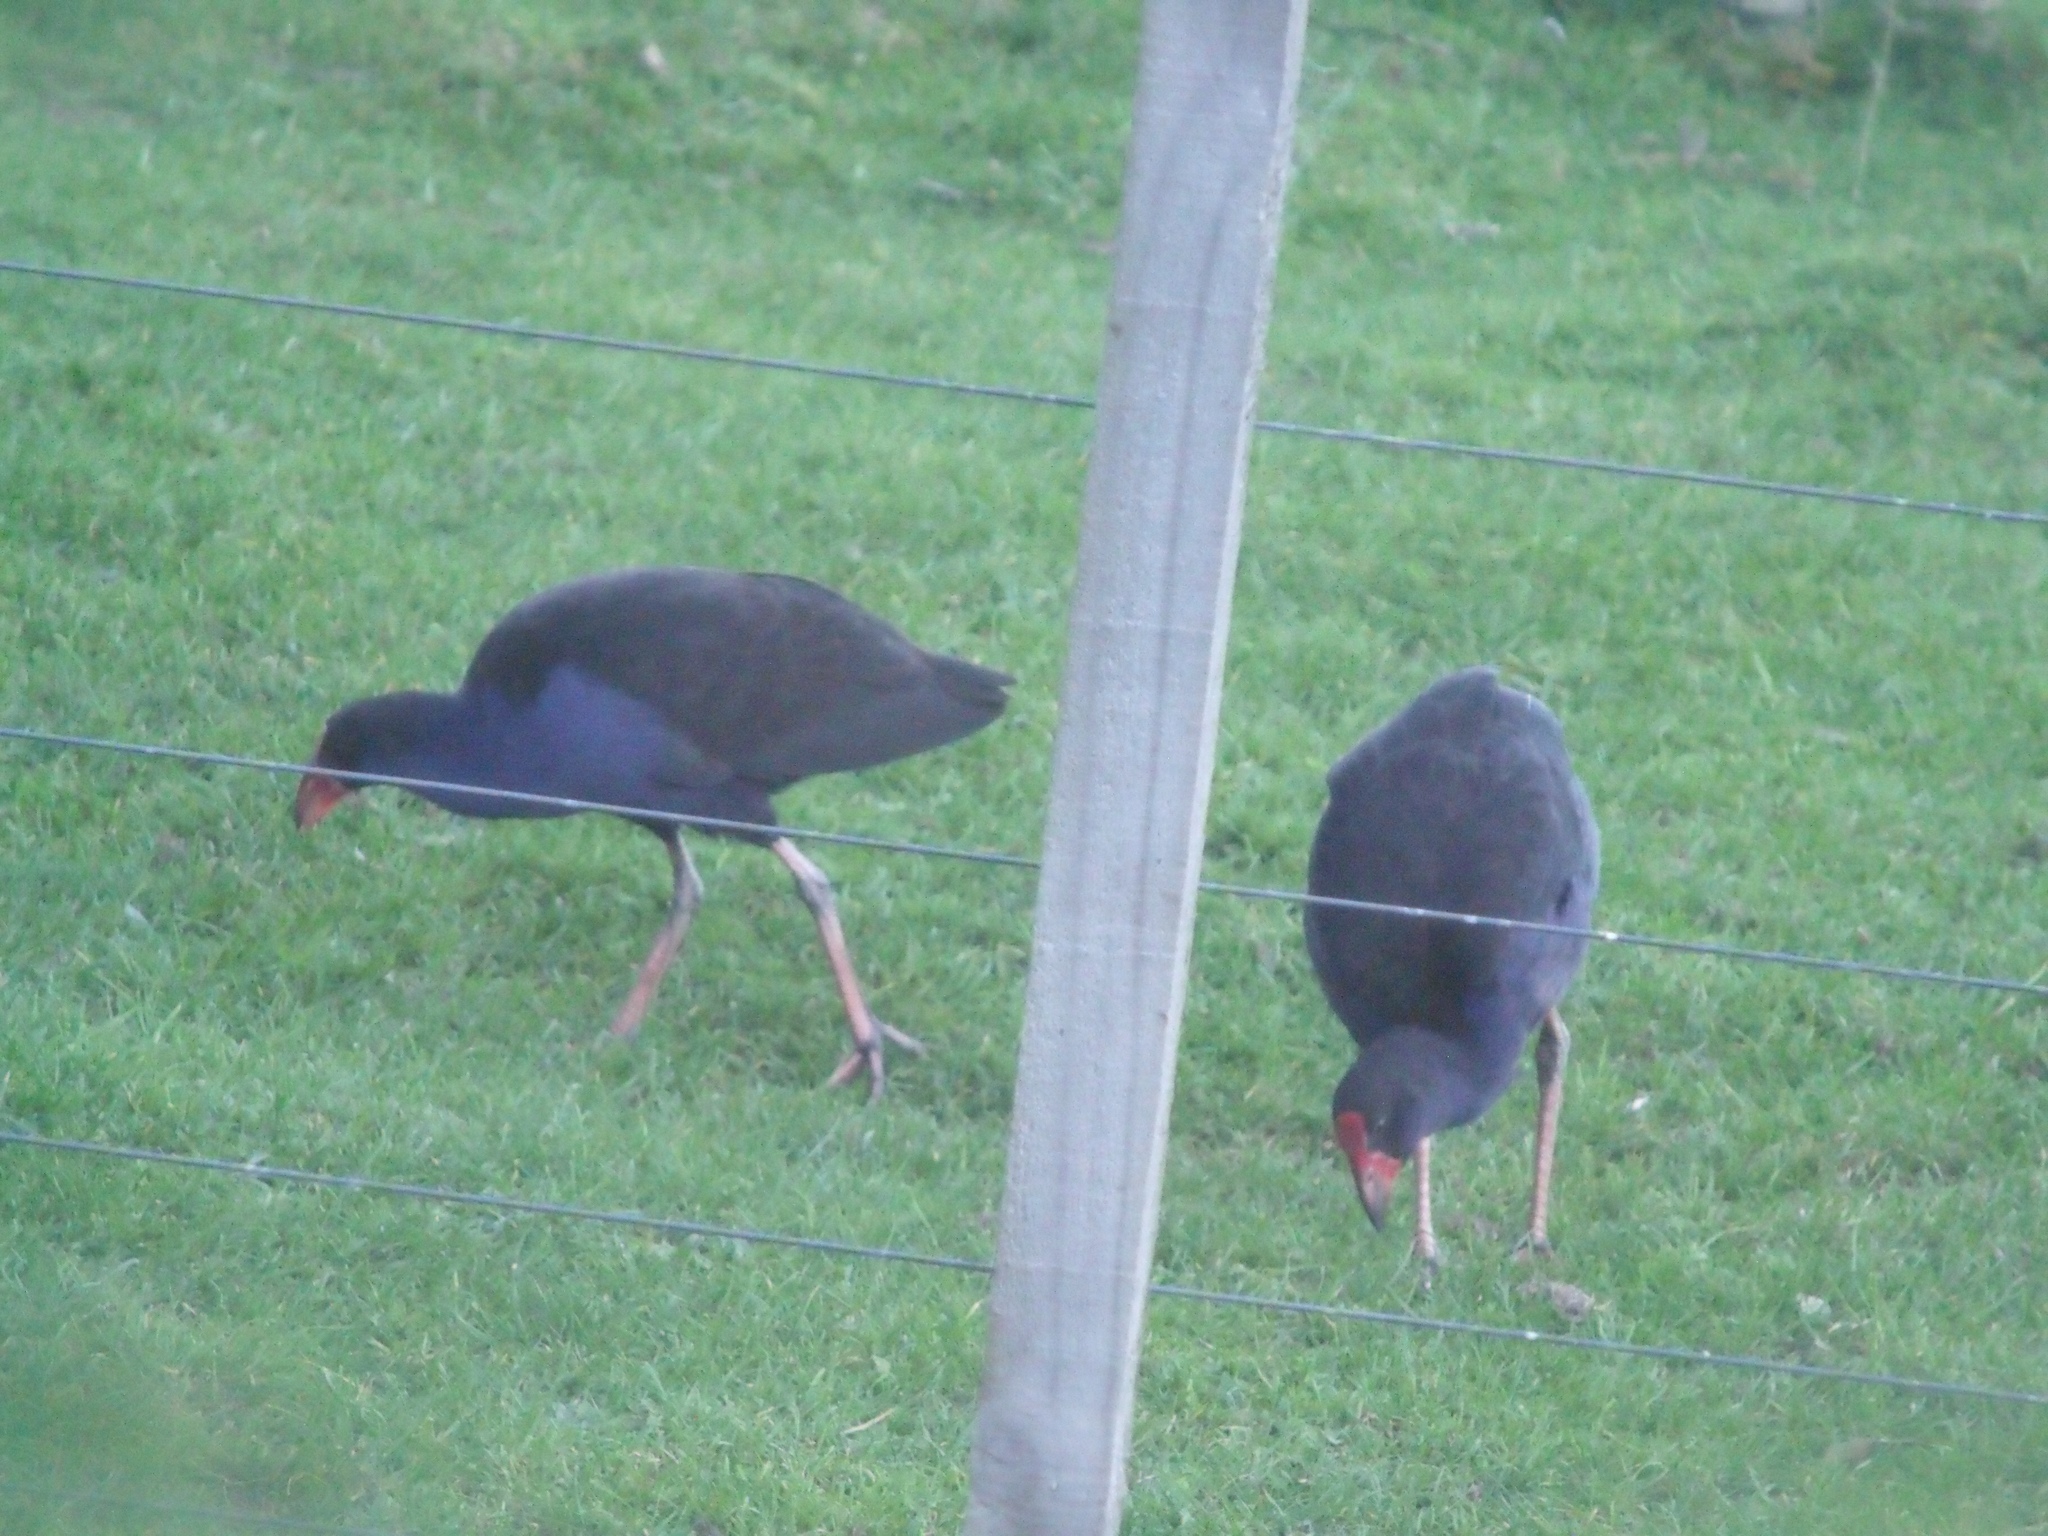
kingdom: Animalia
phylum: Chordata
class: Aves
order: Gruiformes
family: Rallidae
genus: Porphyrio
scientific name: Porphyrio melanotus
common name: Australasian swamphen
